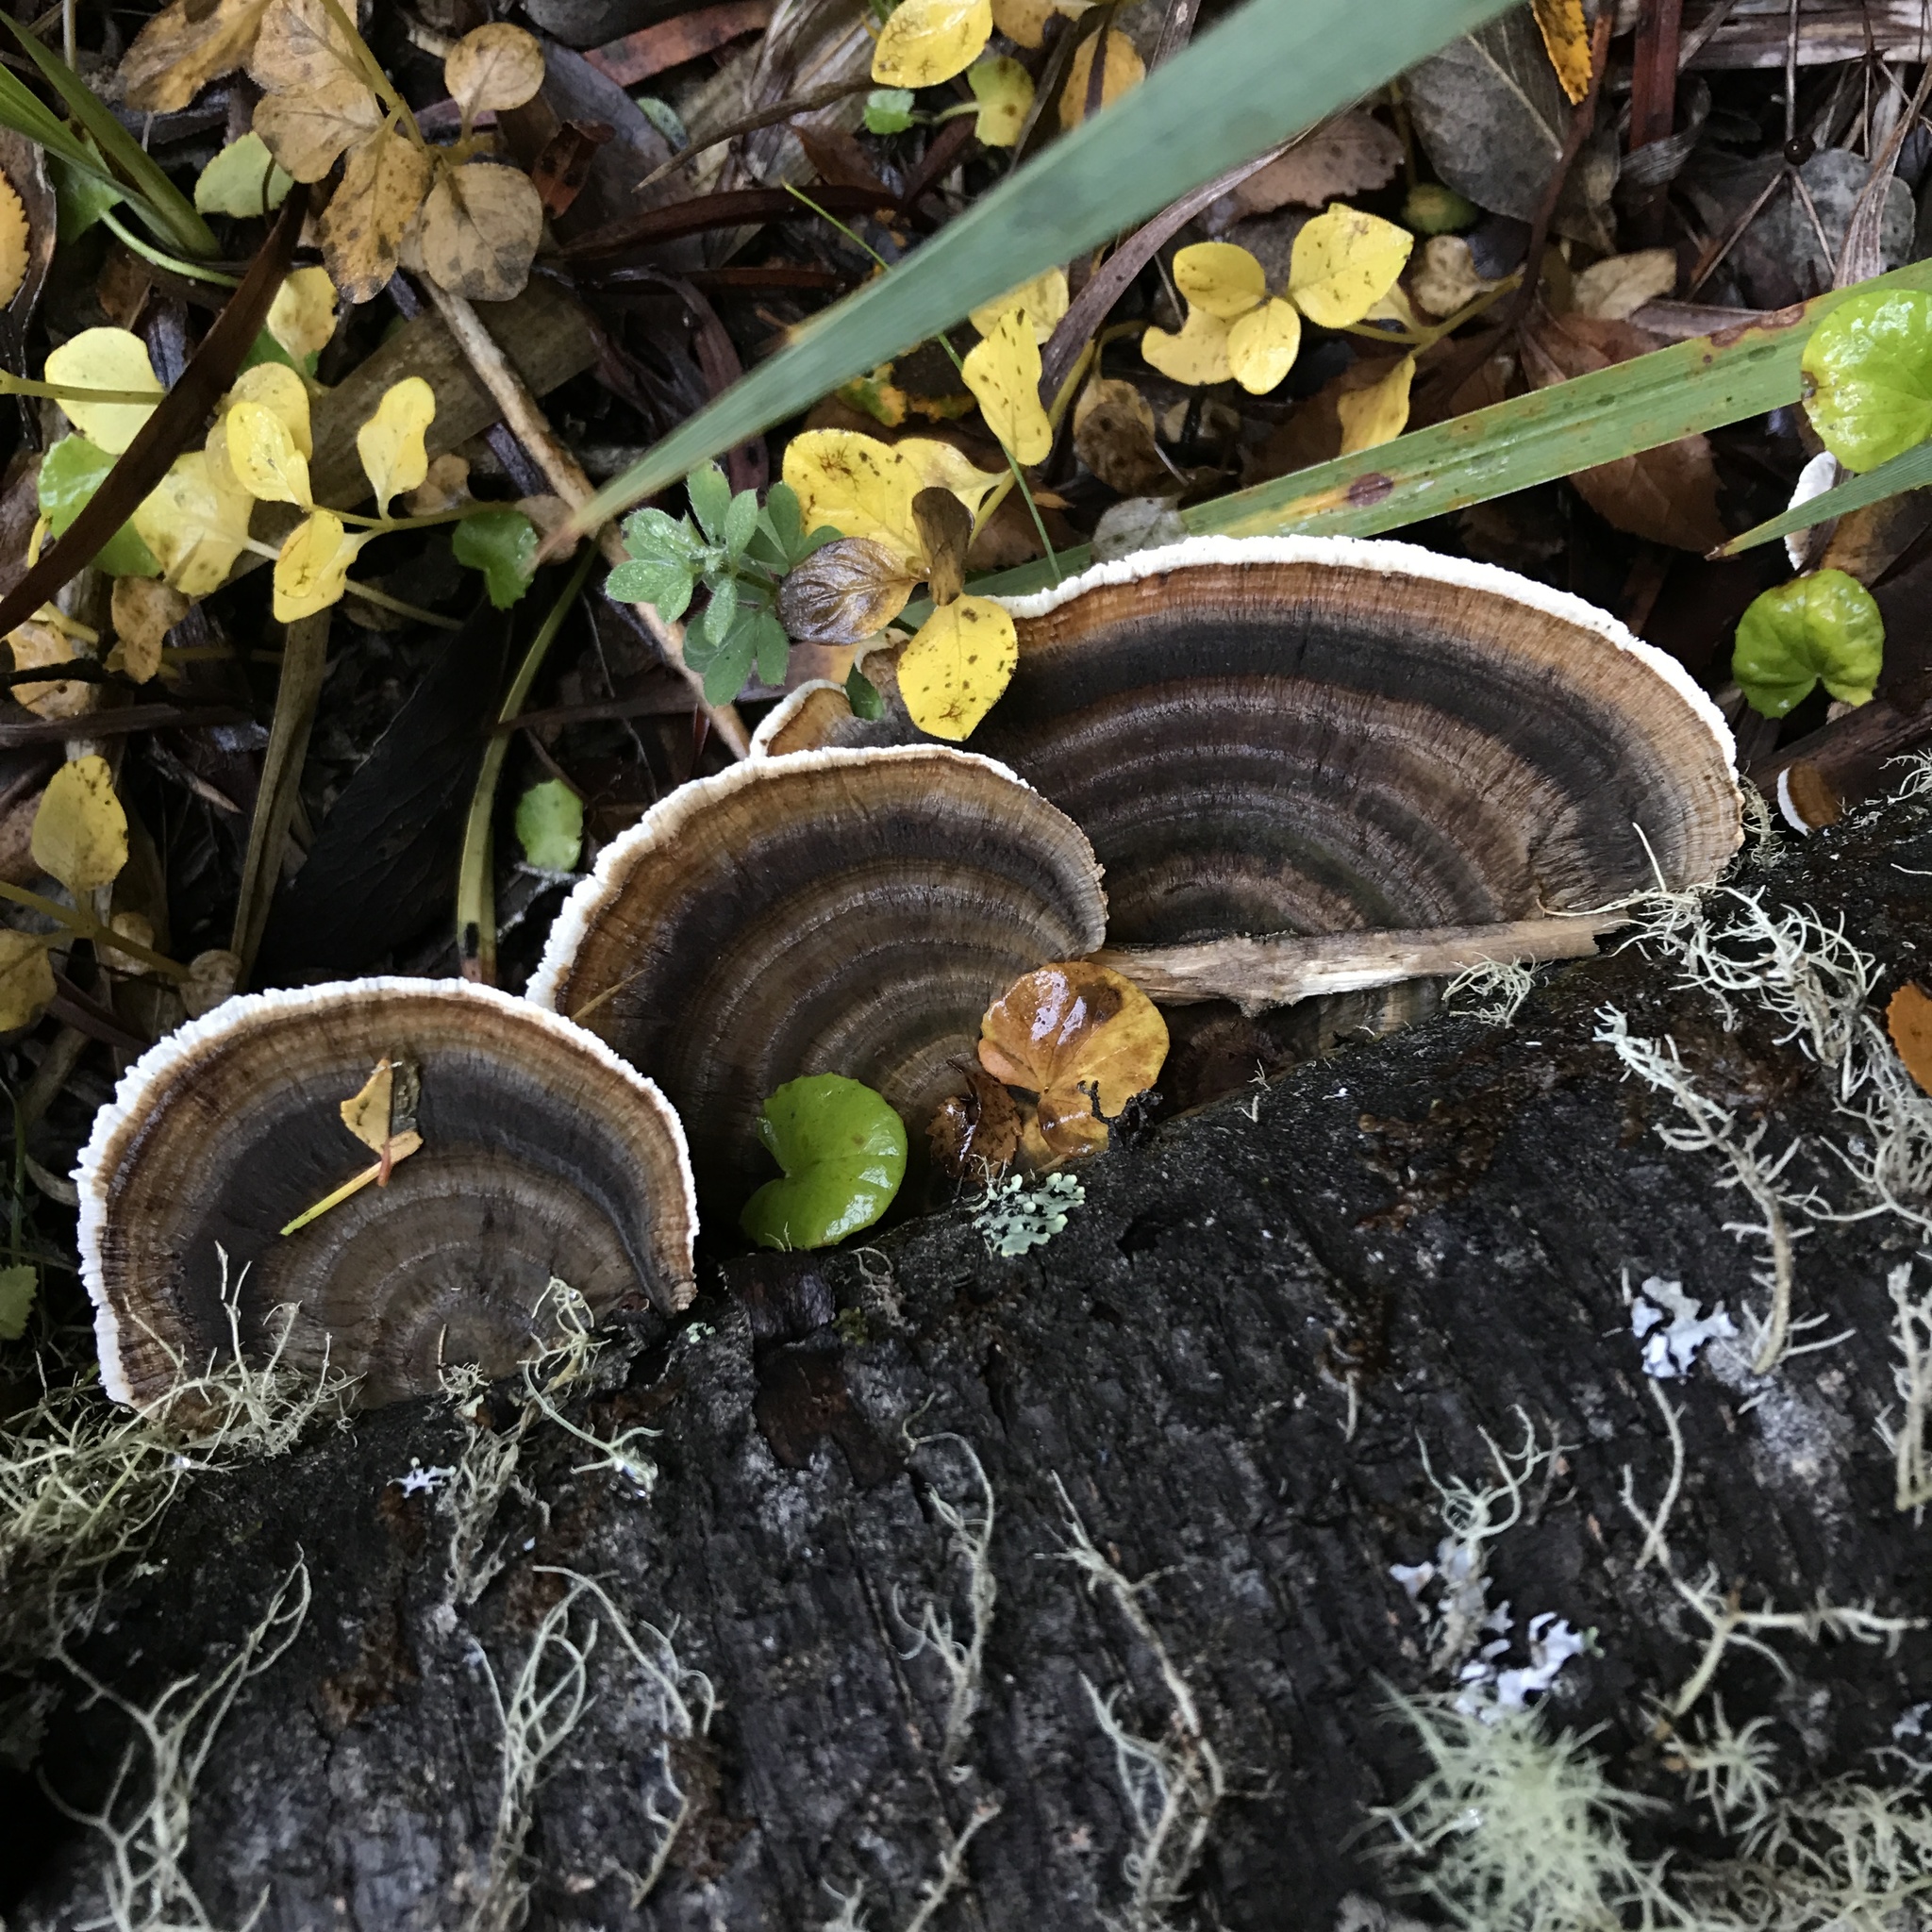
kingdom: Fungi
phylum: Basidiomycota
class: Agaricomycetes
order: Polyporales
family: Polyporaceae
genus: Trametes
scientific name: Trametes versicolor
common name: Turkeytail
